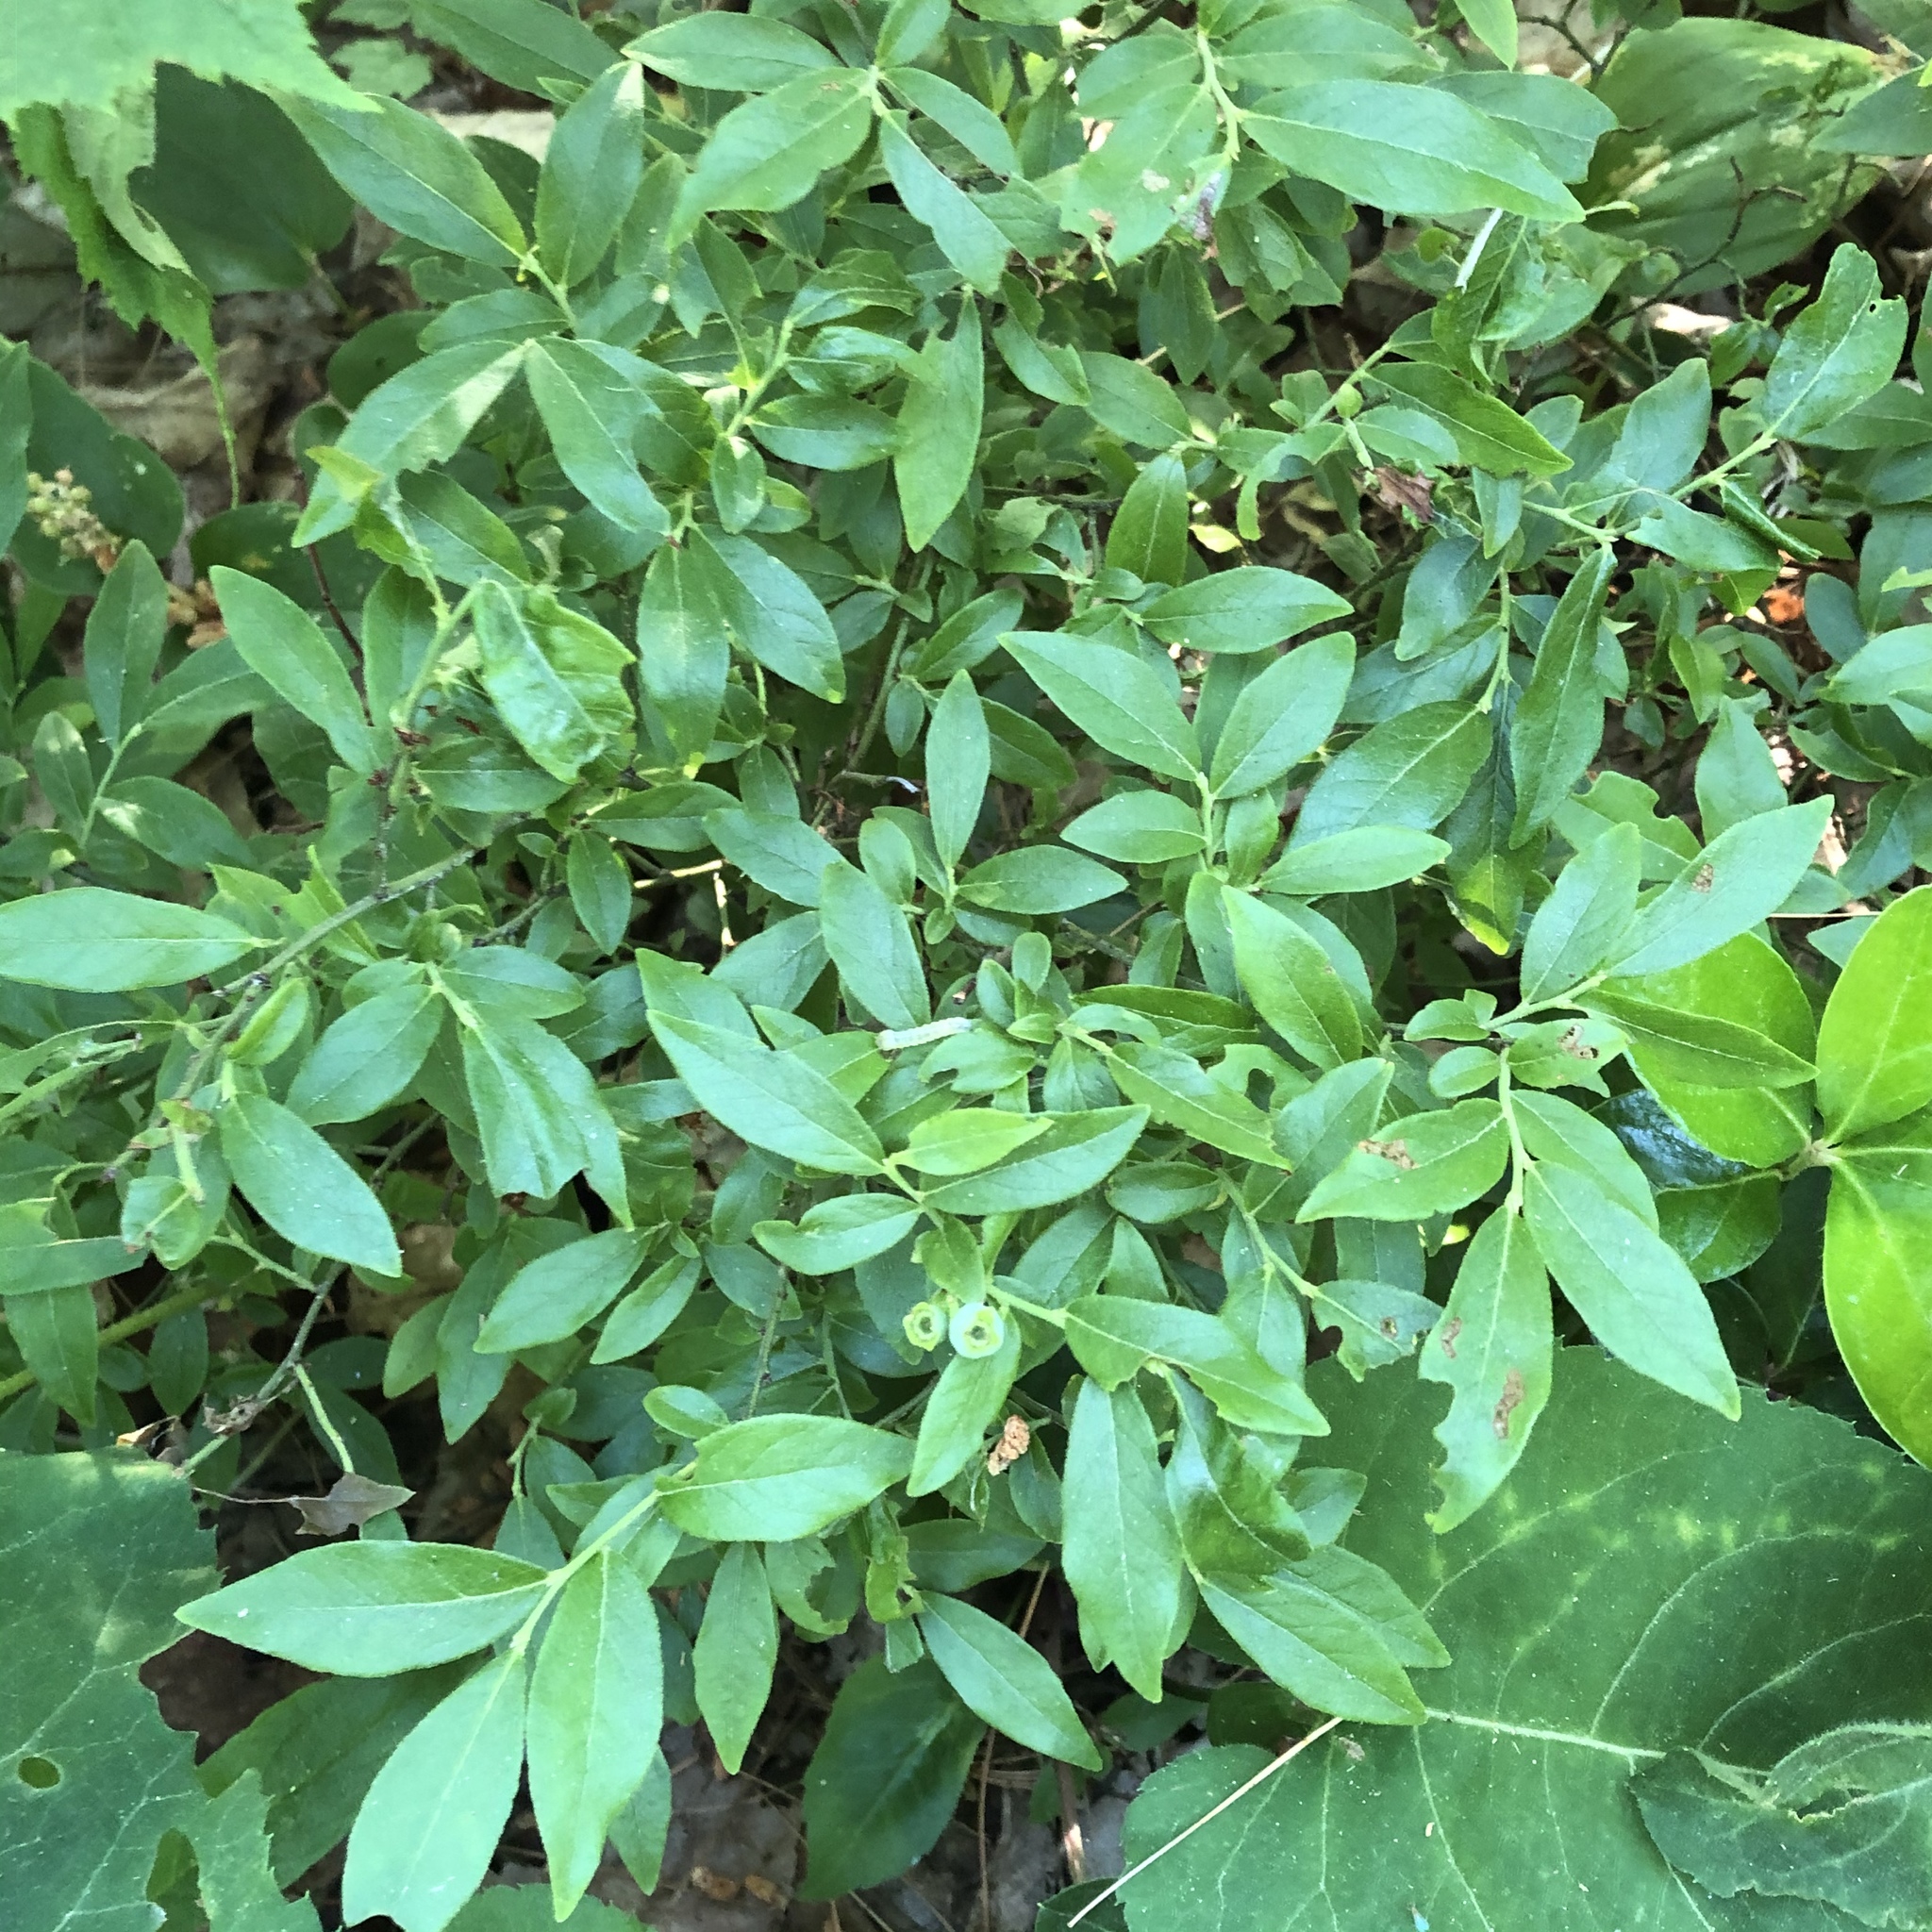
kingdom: Plantae
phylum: Tracheophyta
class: Magnoliopsida
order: Ericales
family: Ericaceae
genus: Vaccinium
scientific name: Vaccinium angustifolium
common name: Early lowbush blueberry
